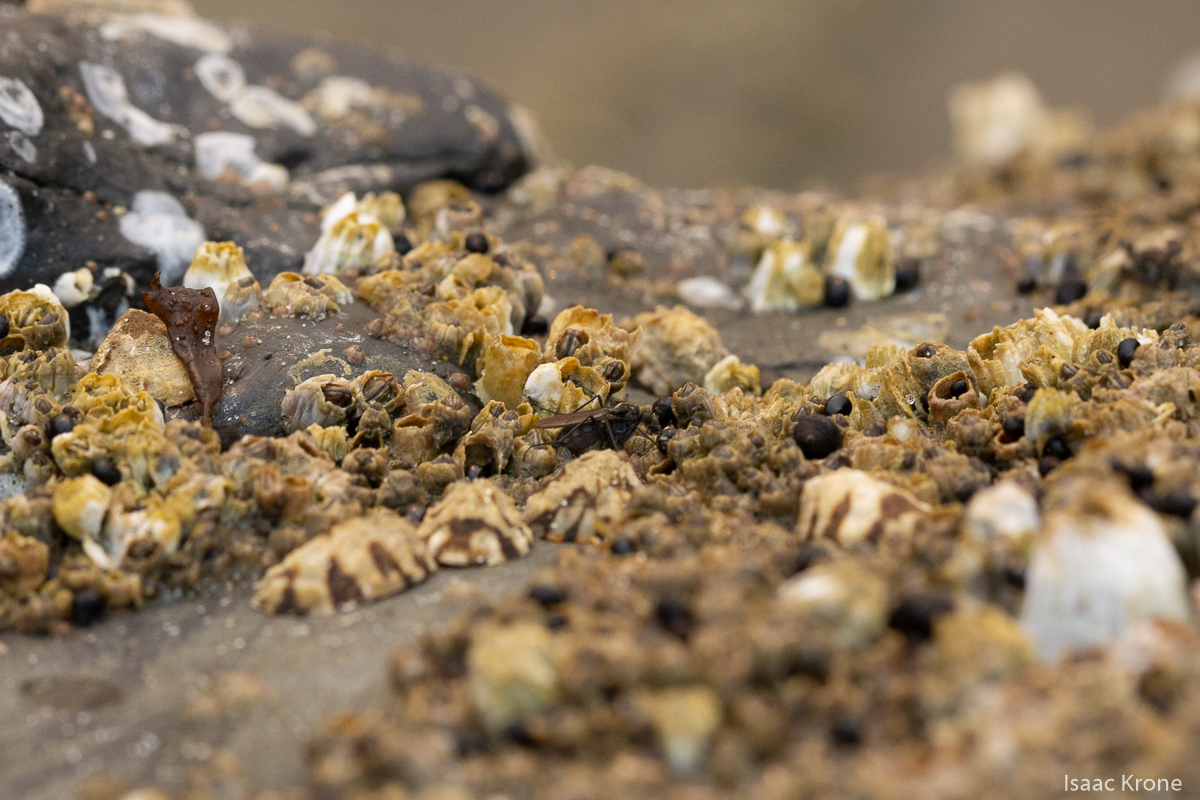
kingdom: Animalia
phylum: Arthropoda
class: Insecta
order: Diptera
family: Dolichopodidae
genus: Thambemyia
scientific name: Thambemyia borealis
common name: Fly
